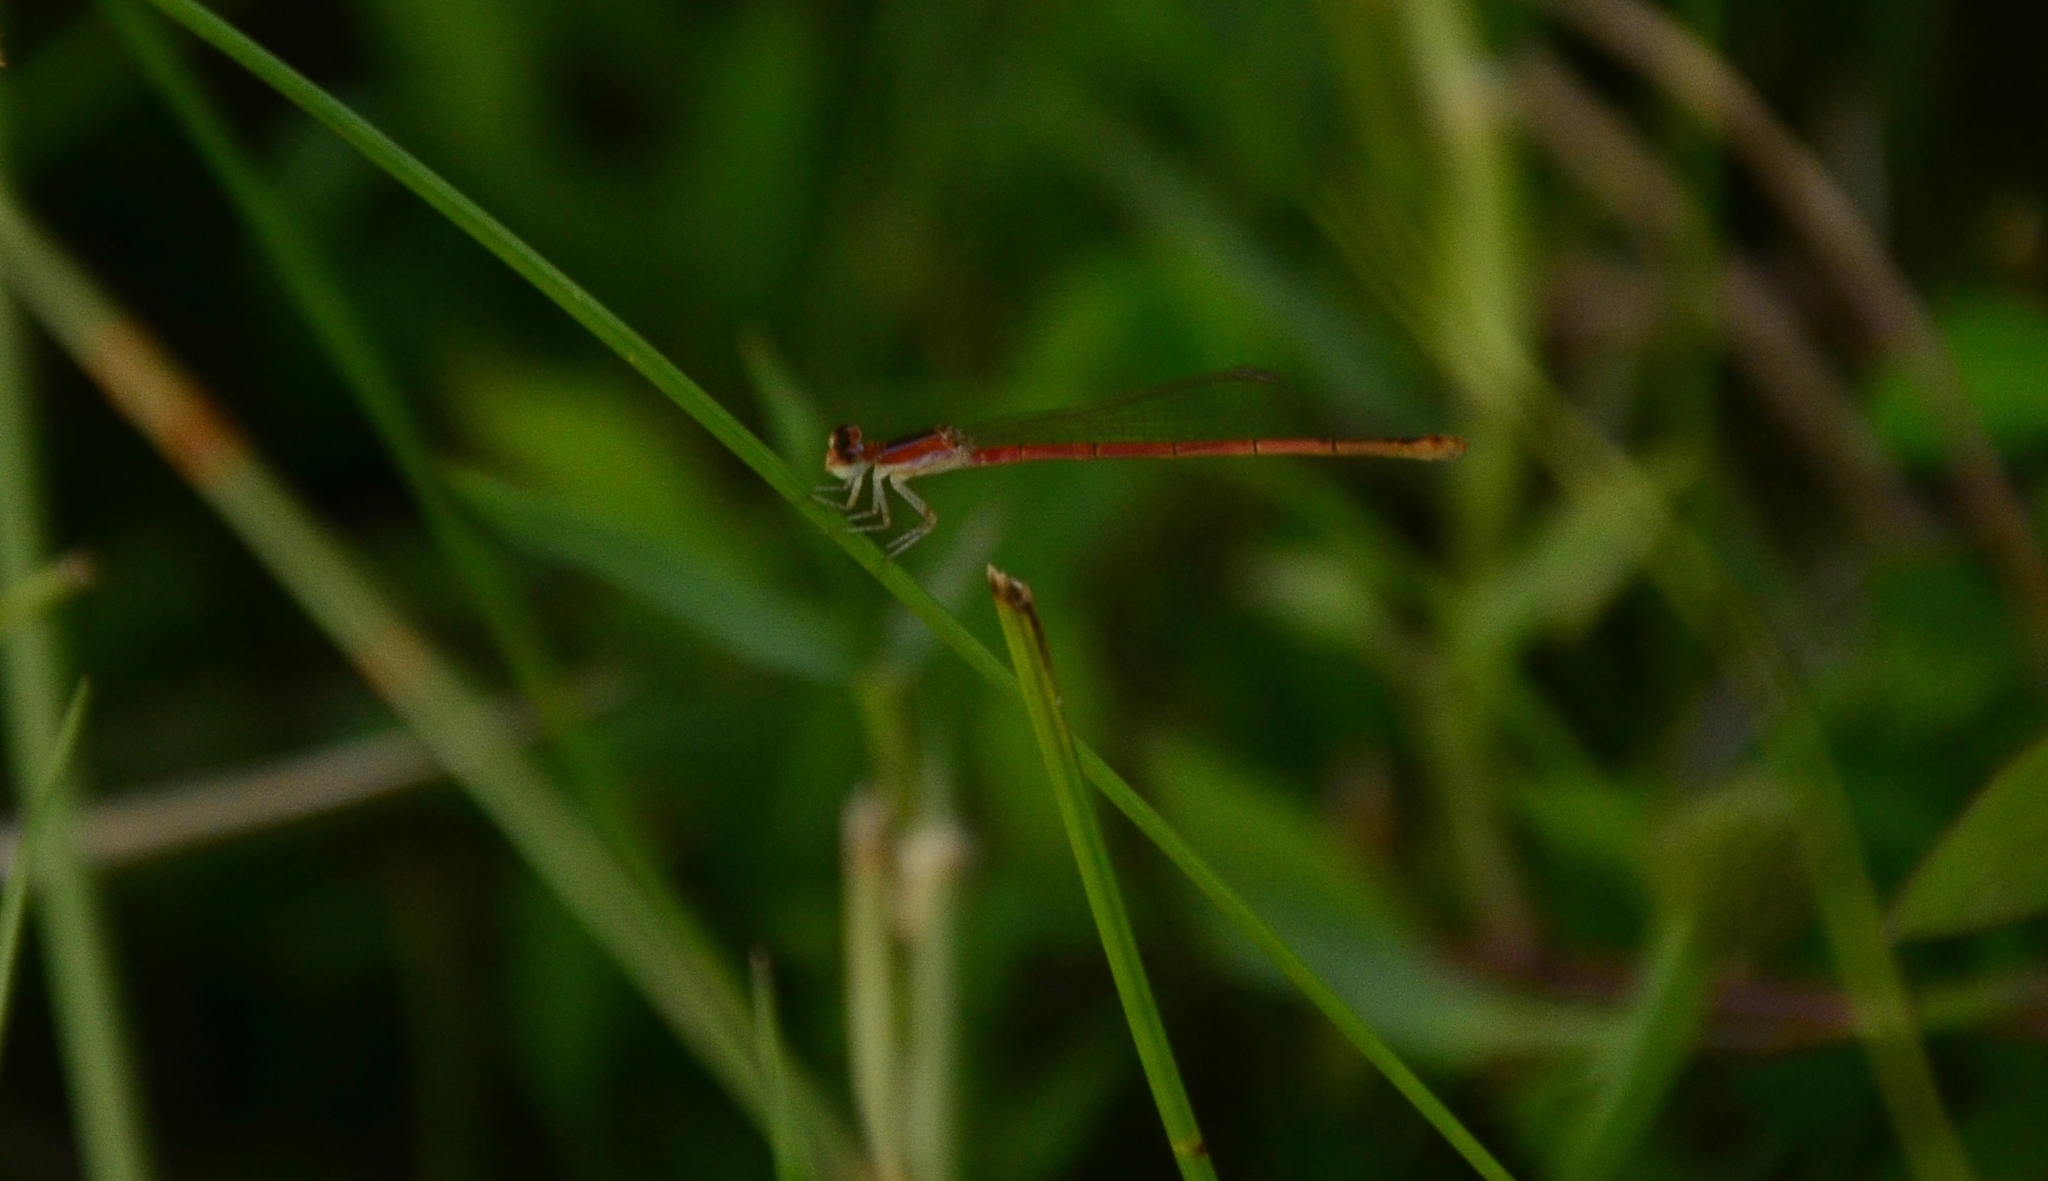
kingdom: Animalia
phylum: Arthropoda
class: Insecta
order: Odonata
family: Coenagrionidae
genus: Agriocnemis
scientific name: Agriocnemis pygmaea
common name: Pygmy wisp
